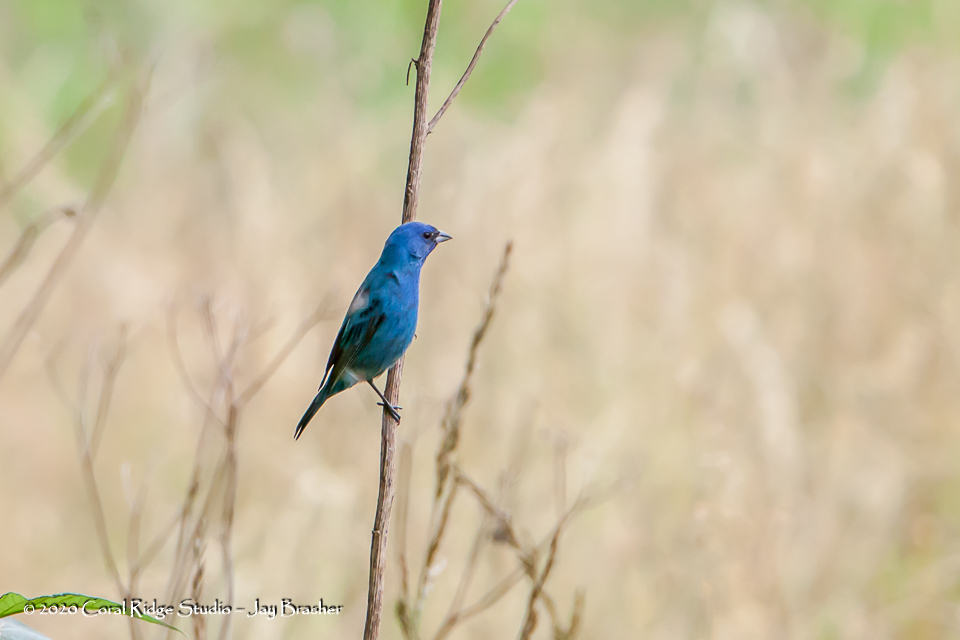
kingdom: Animalia
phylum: Chordata
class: Aves
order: Passeriformes
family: Cardinalidae
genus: Passerina
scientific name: Passerina cyanea
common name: Indigo bunting
